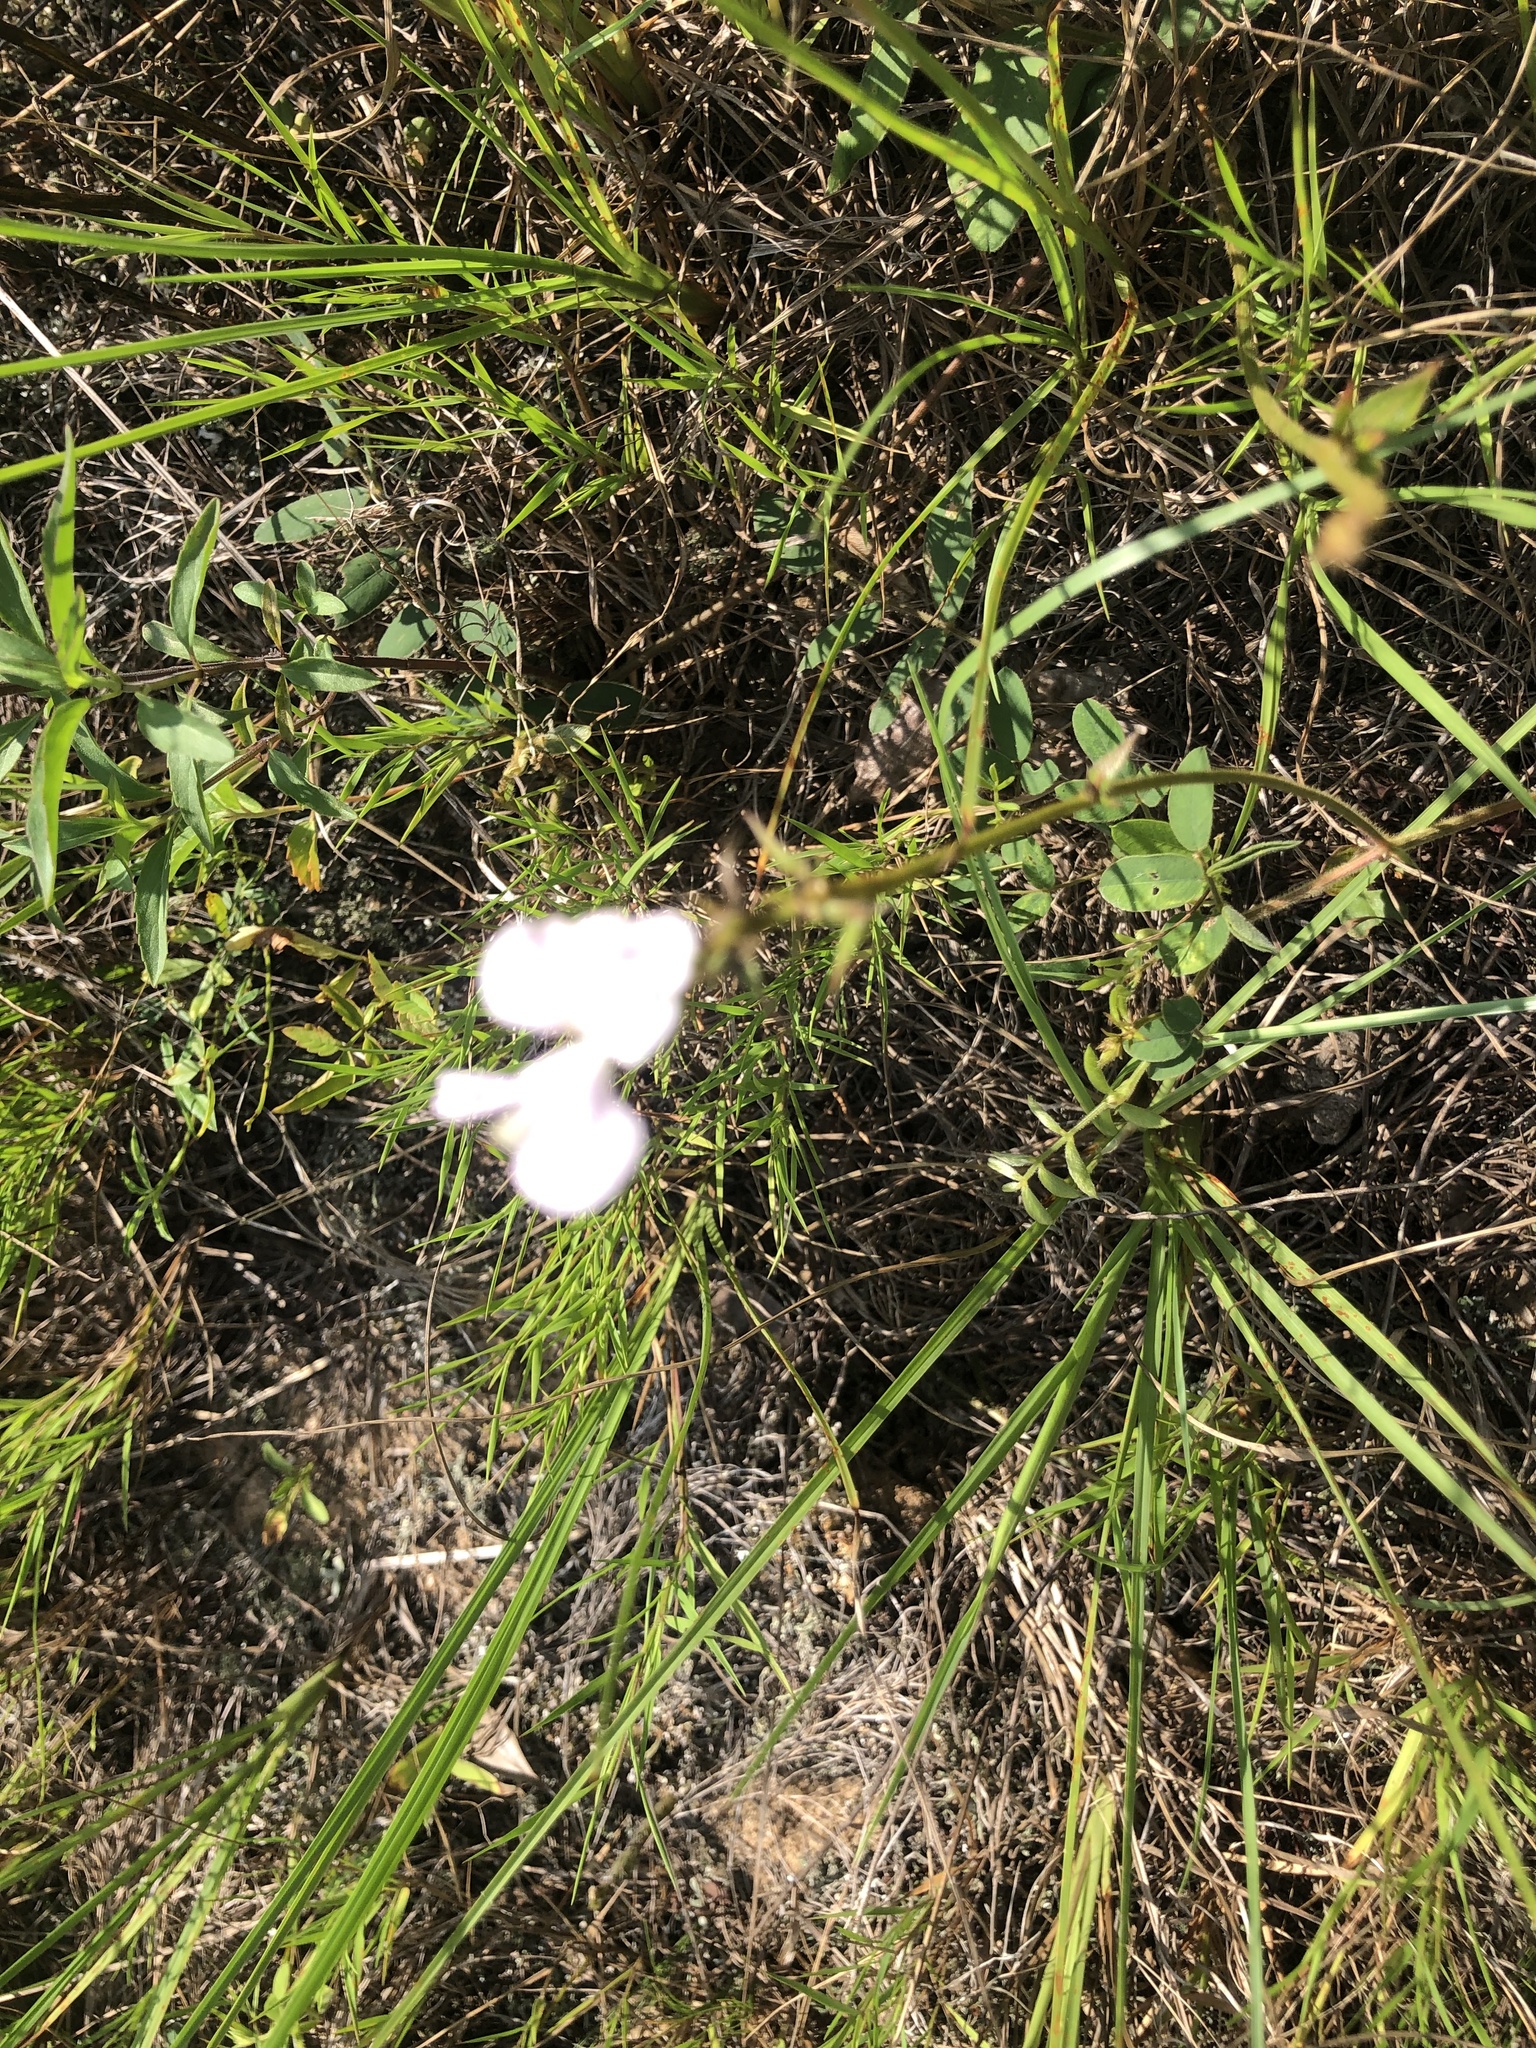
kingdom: Plantae
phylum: Tracheophyta
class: Magnoliopsida
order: Fabales
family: Fabaceae
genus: Tephrosia
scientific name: Tephrosia spicata
